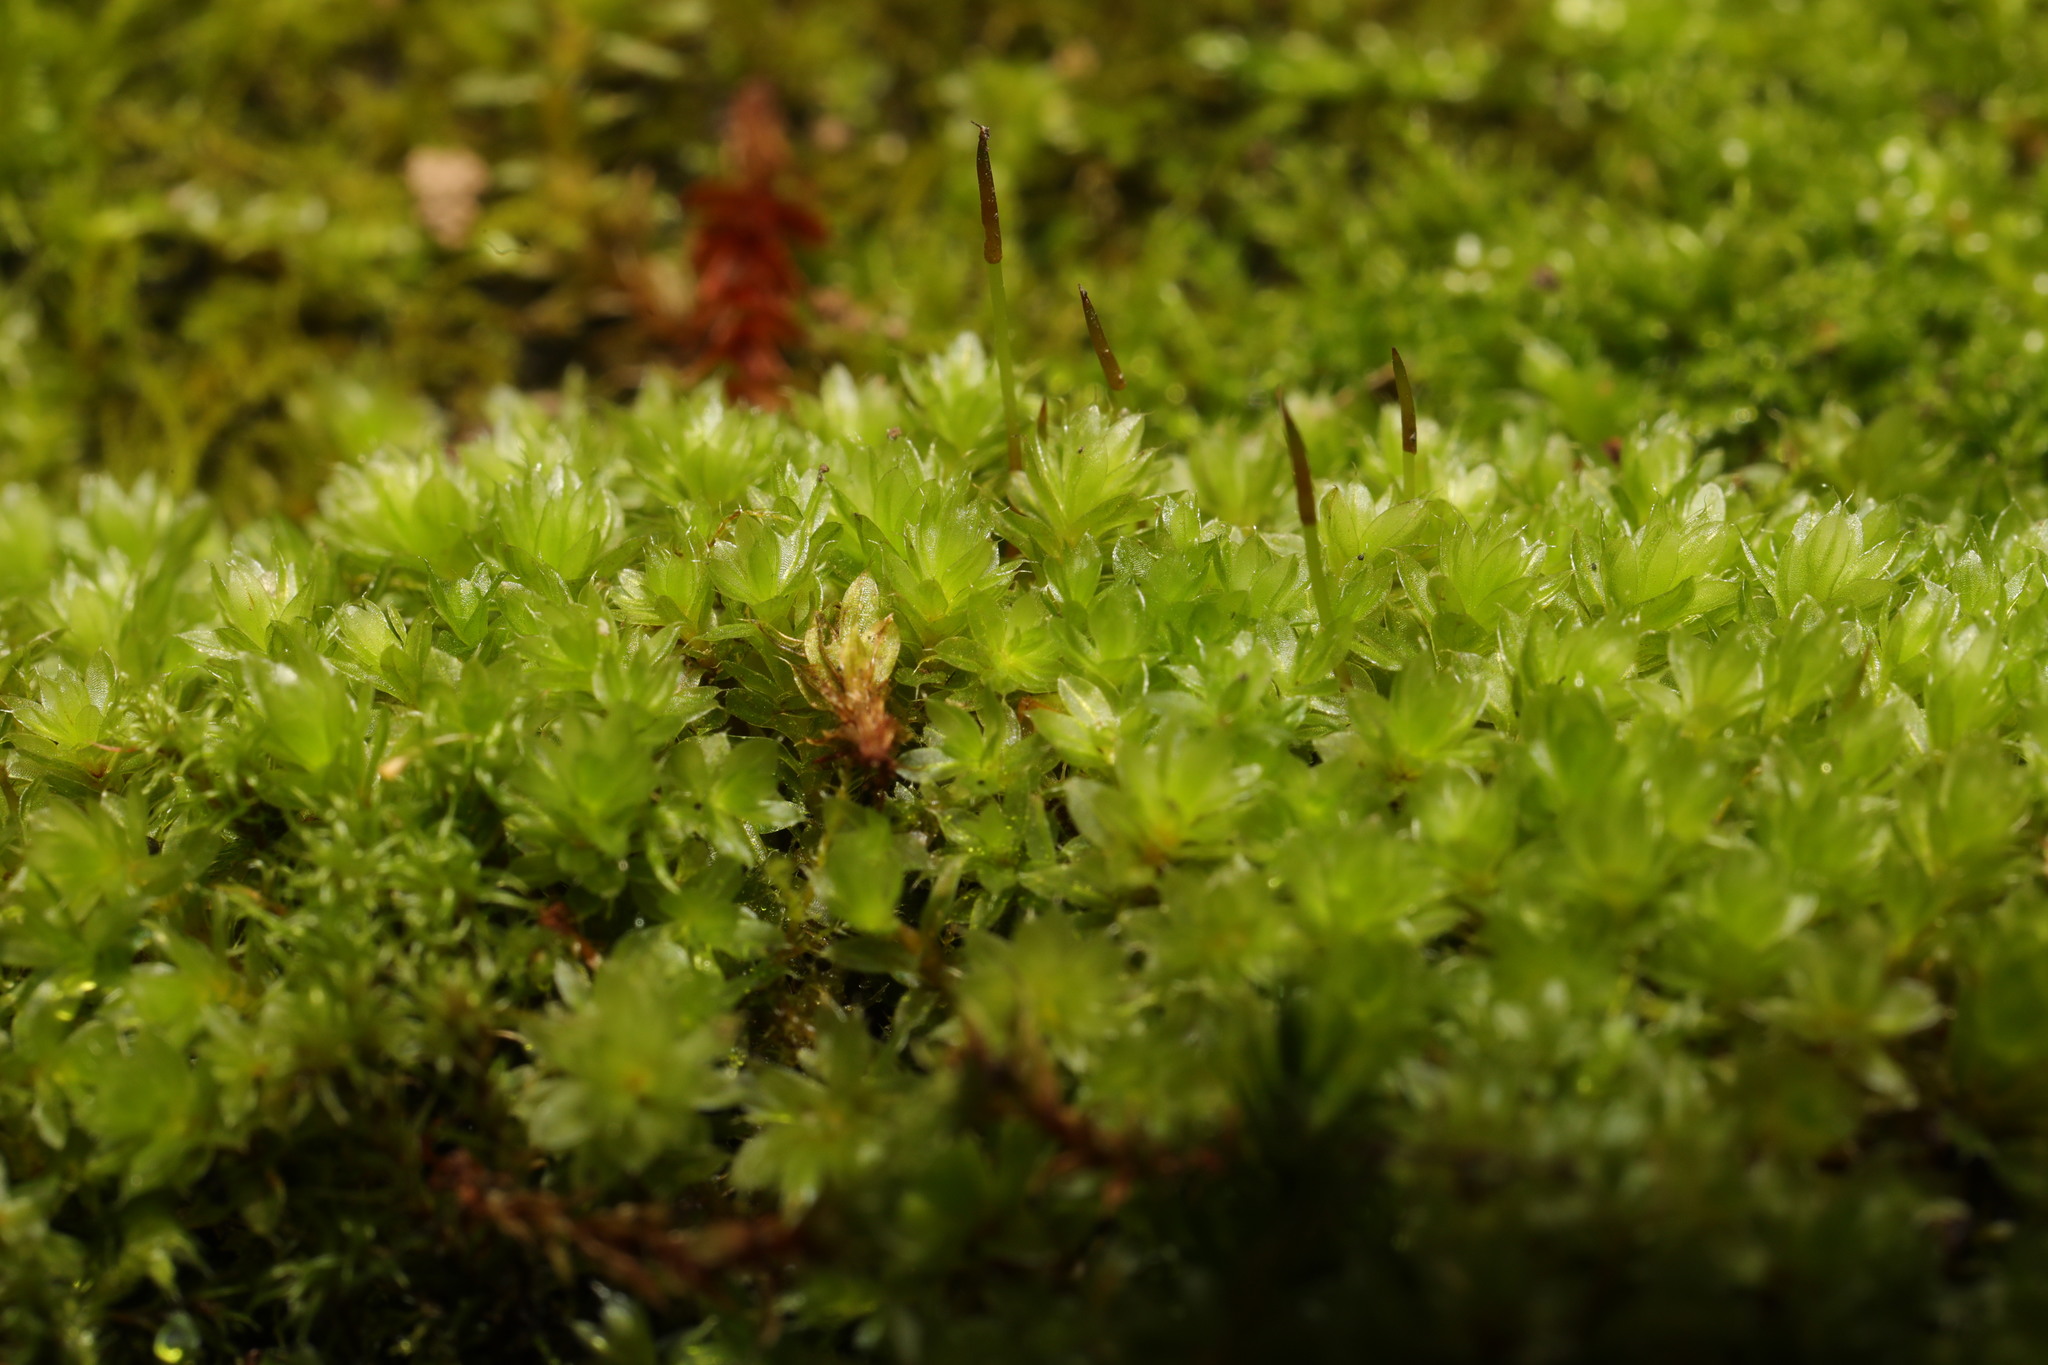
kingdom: Plantae
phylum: Bryophyta
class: Bryopsida
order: Bryales
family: Bryaceae
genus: Rosulabryum
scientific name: Rosulabryum capillare
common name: Capillary thread-moss
